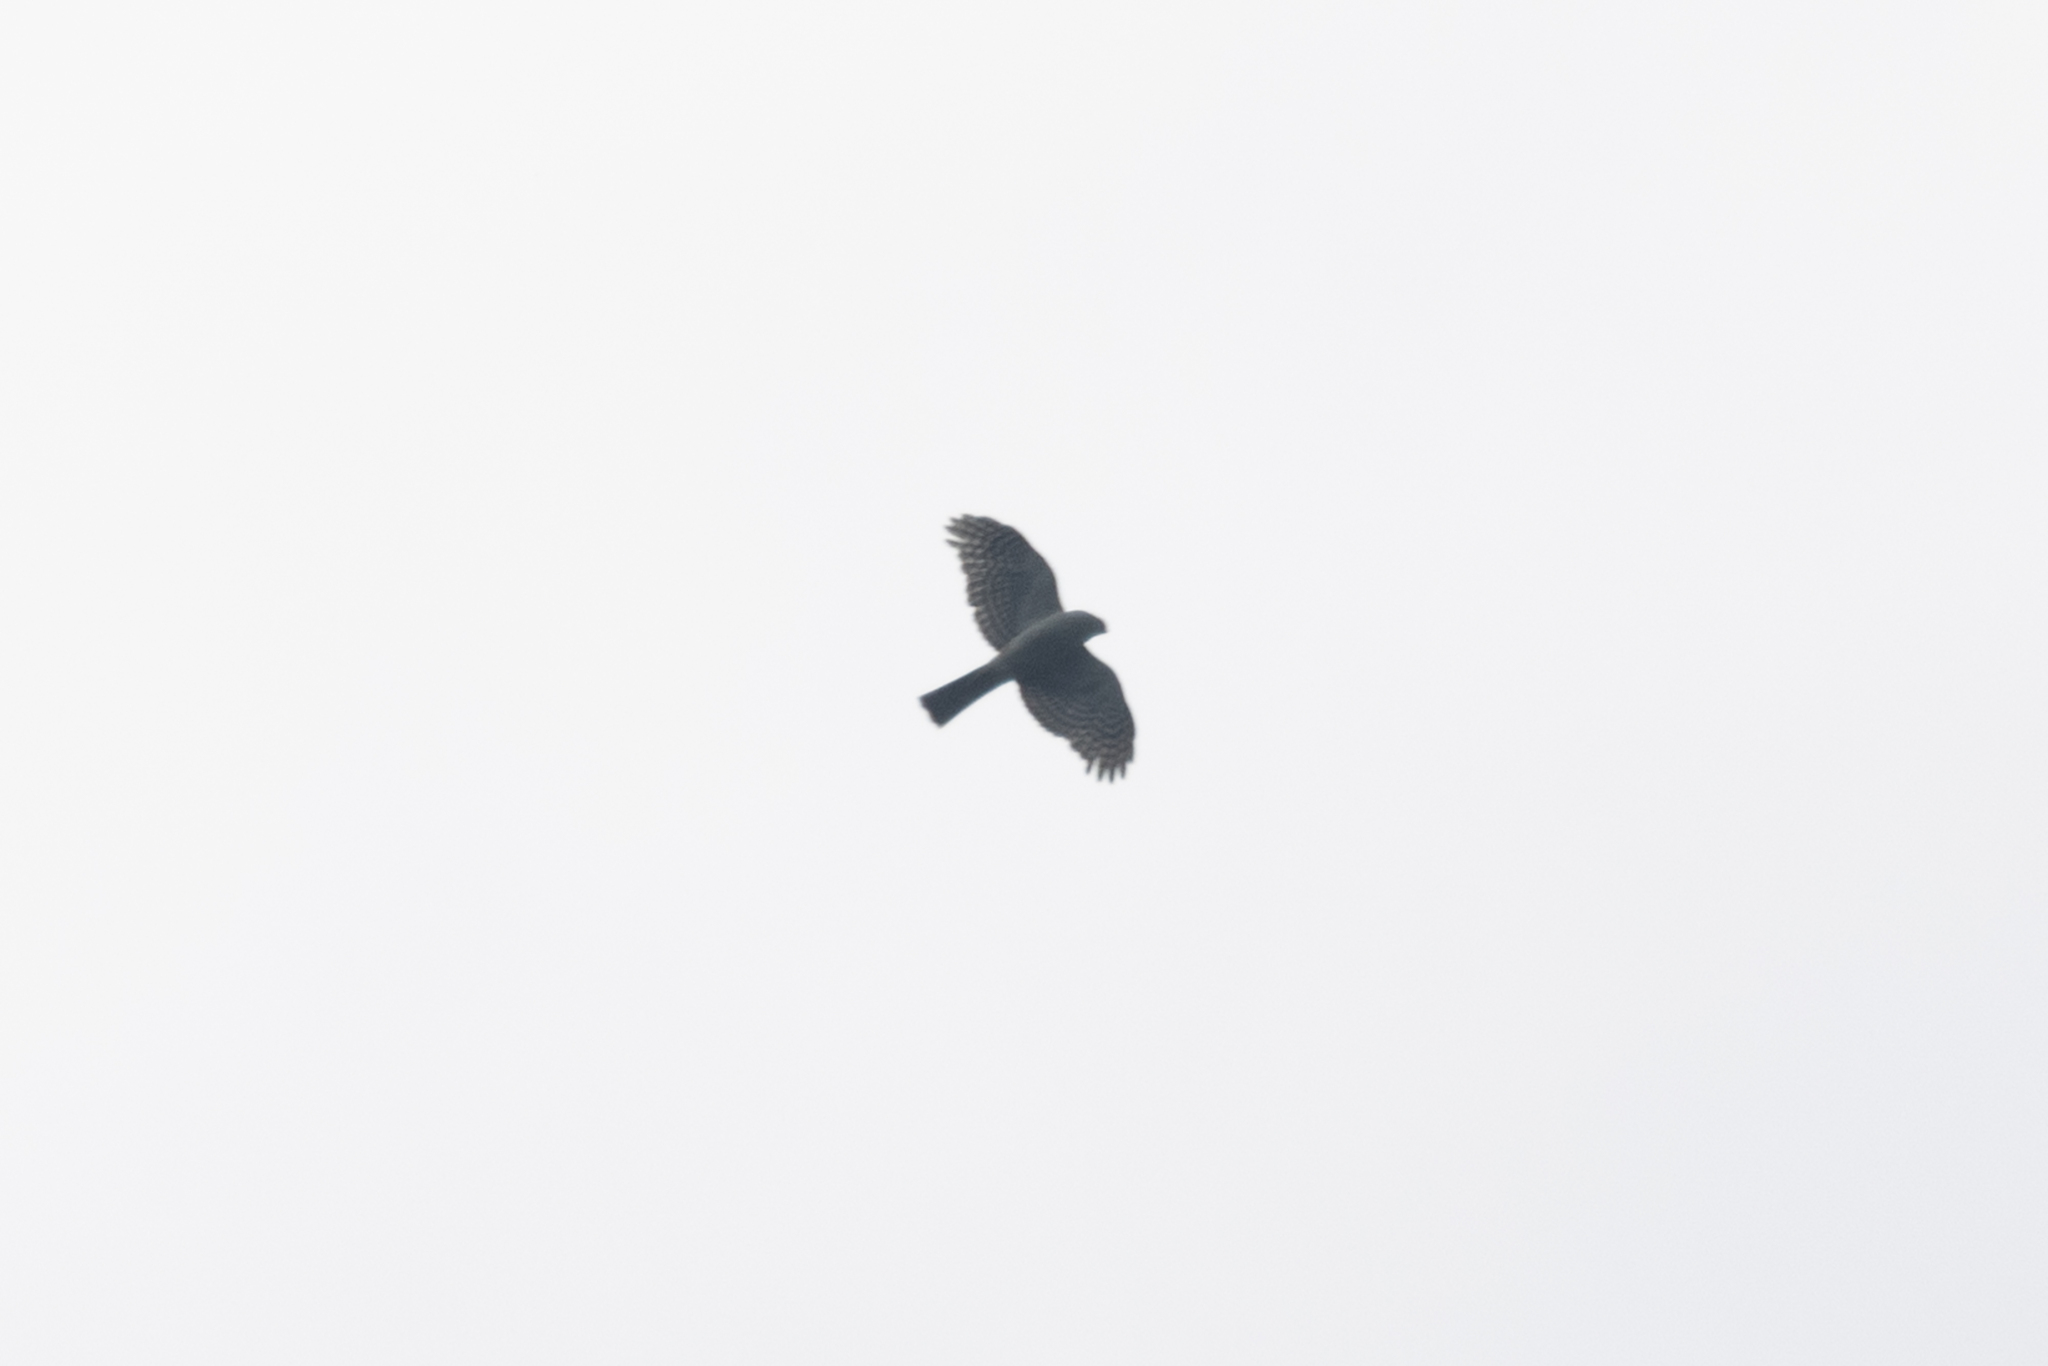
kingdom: Animalia
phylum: Chordata
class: Aves
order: Accipitriformes
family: Accipitridae
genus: Accipiter
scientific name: Accipiter striatus
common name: Sharp-shinned hawk
